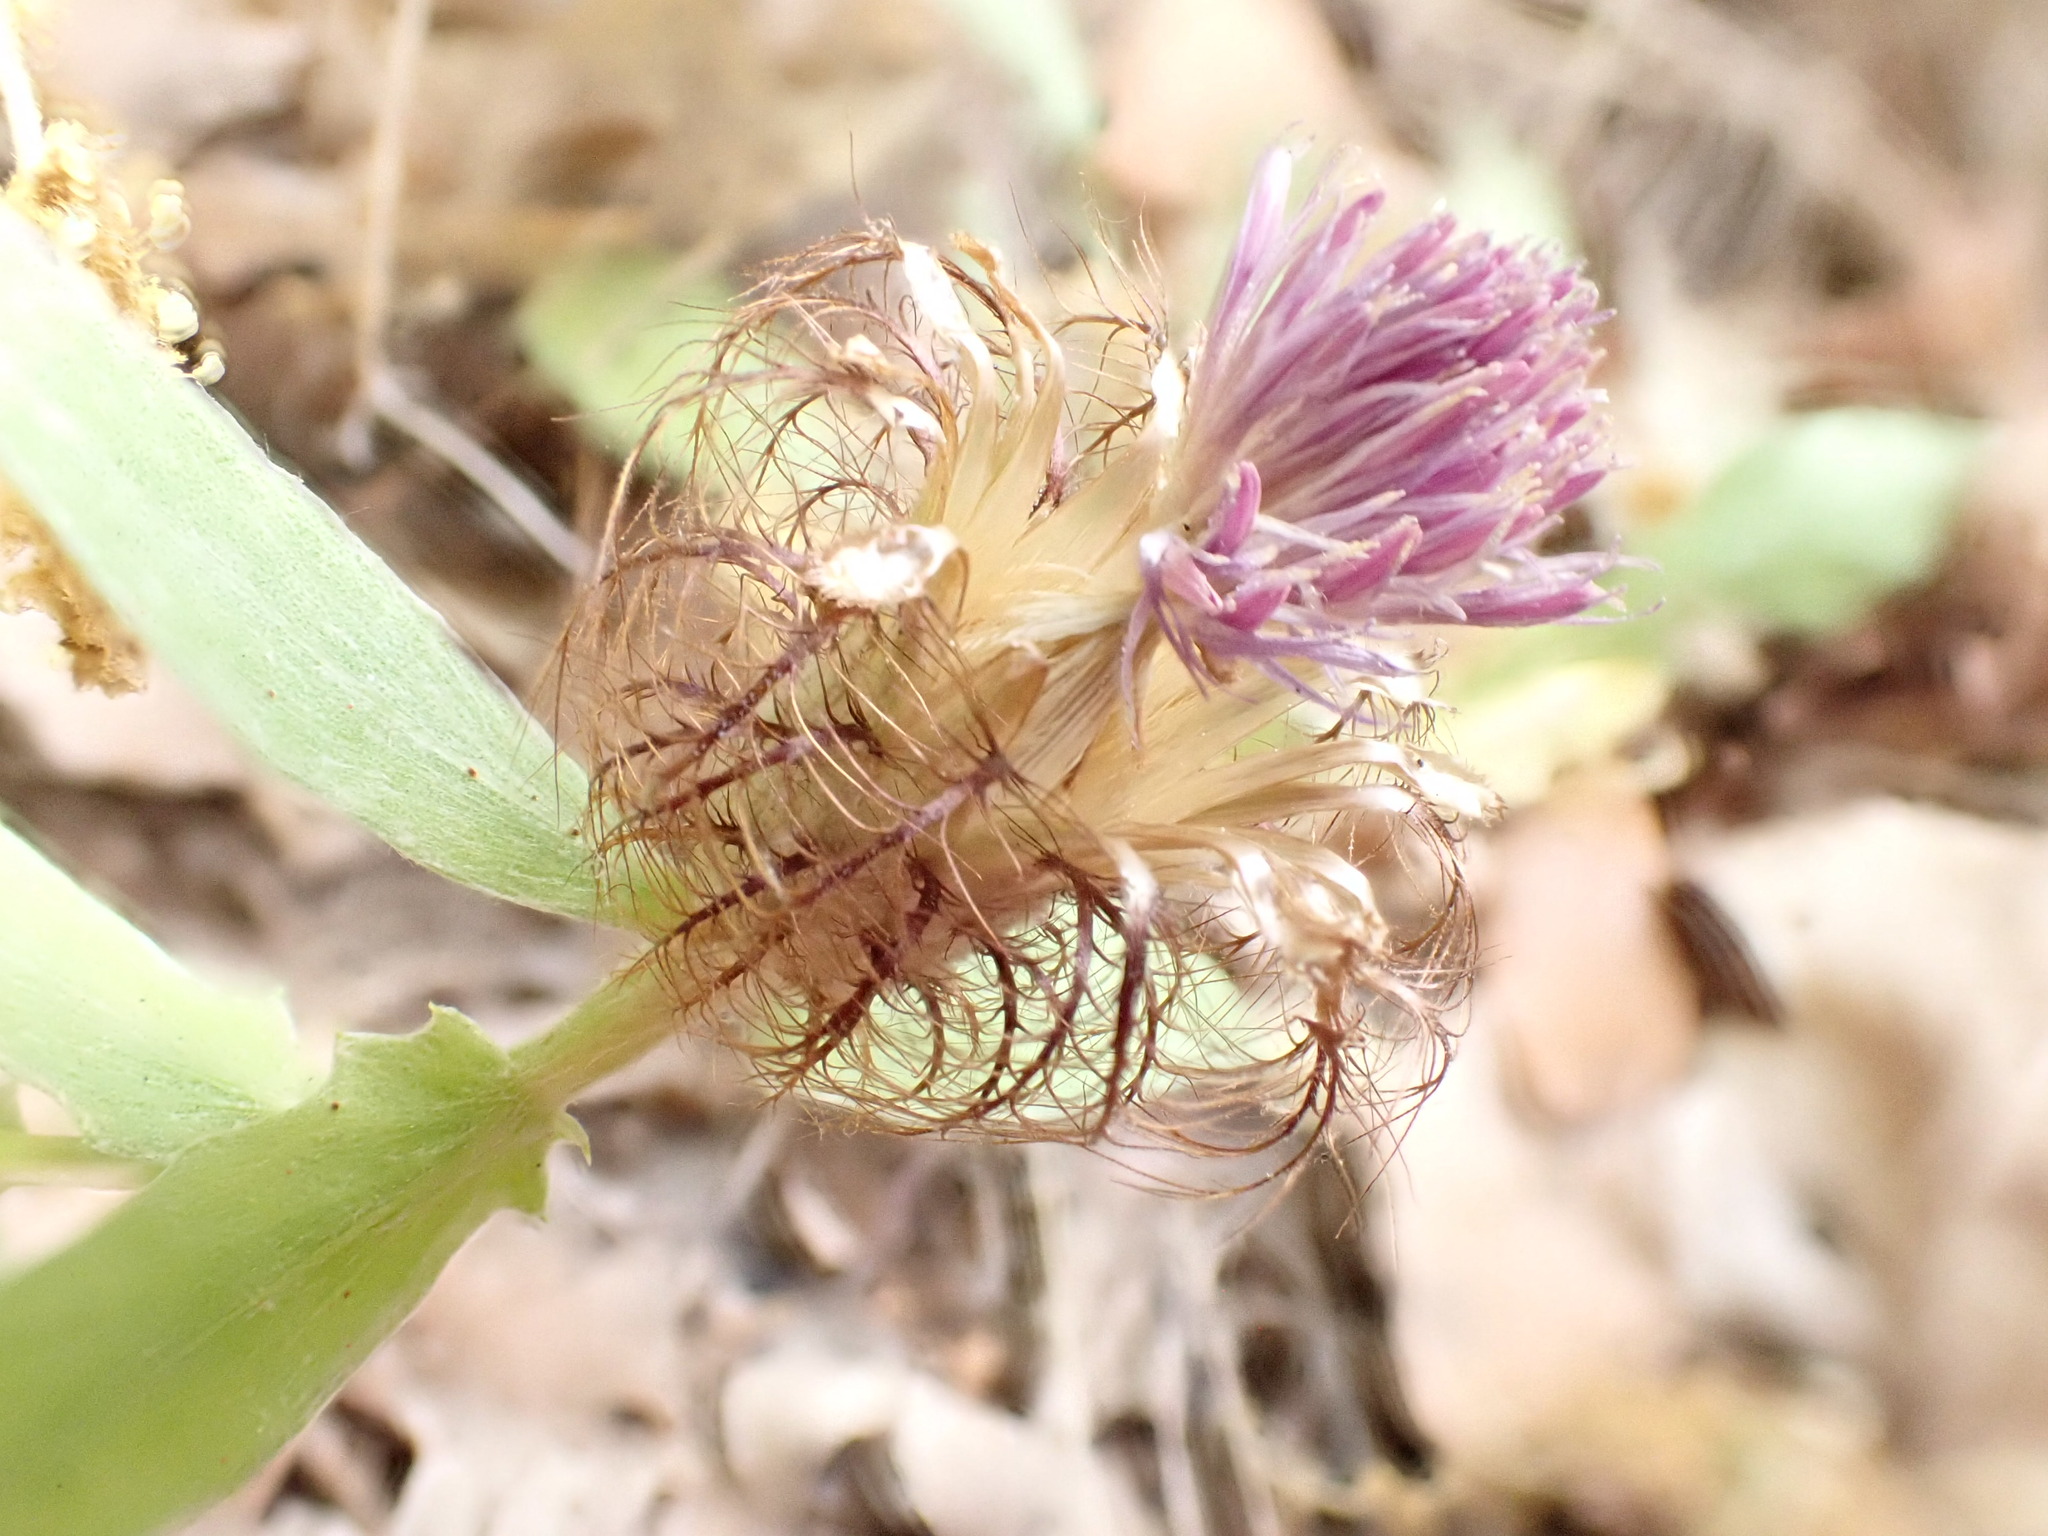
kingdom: Plantae
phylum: Tracheophyta
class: Magnoliopsida
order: Asterales
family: Asteraceae
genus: Centaurea
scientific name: Centaurea pectinata
